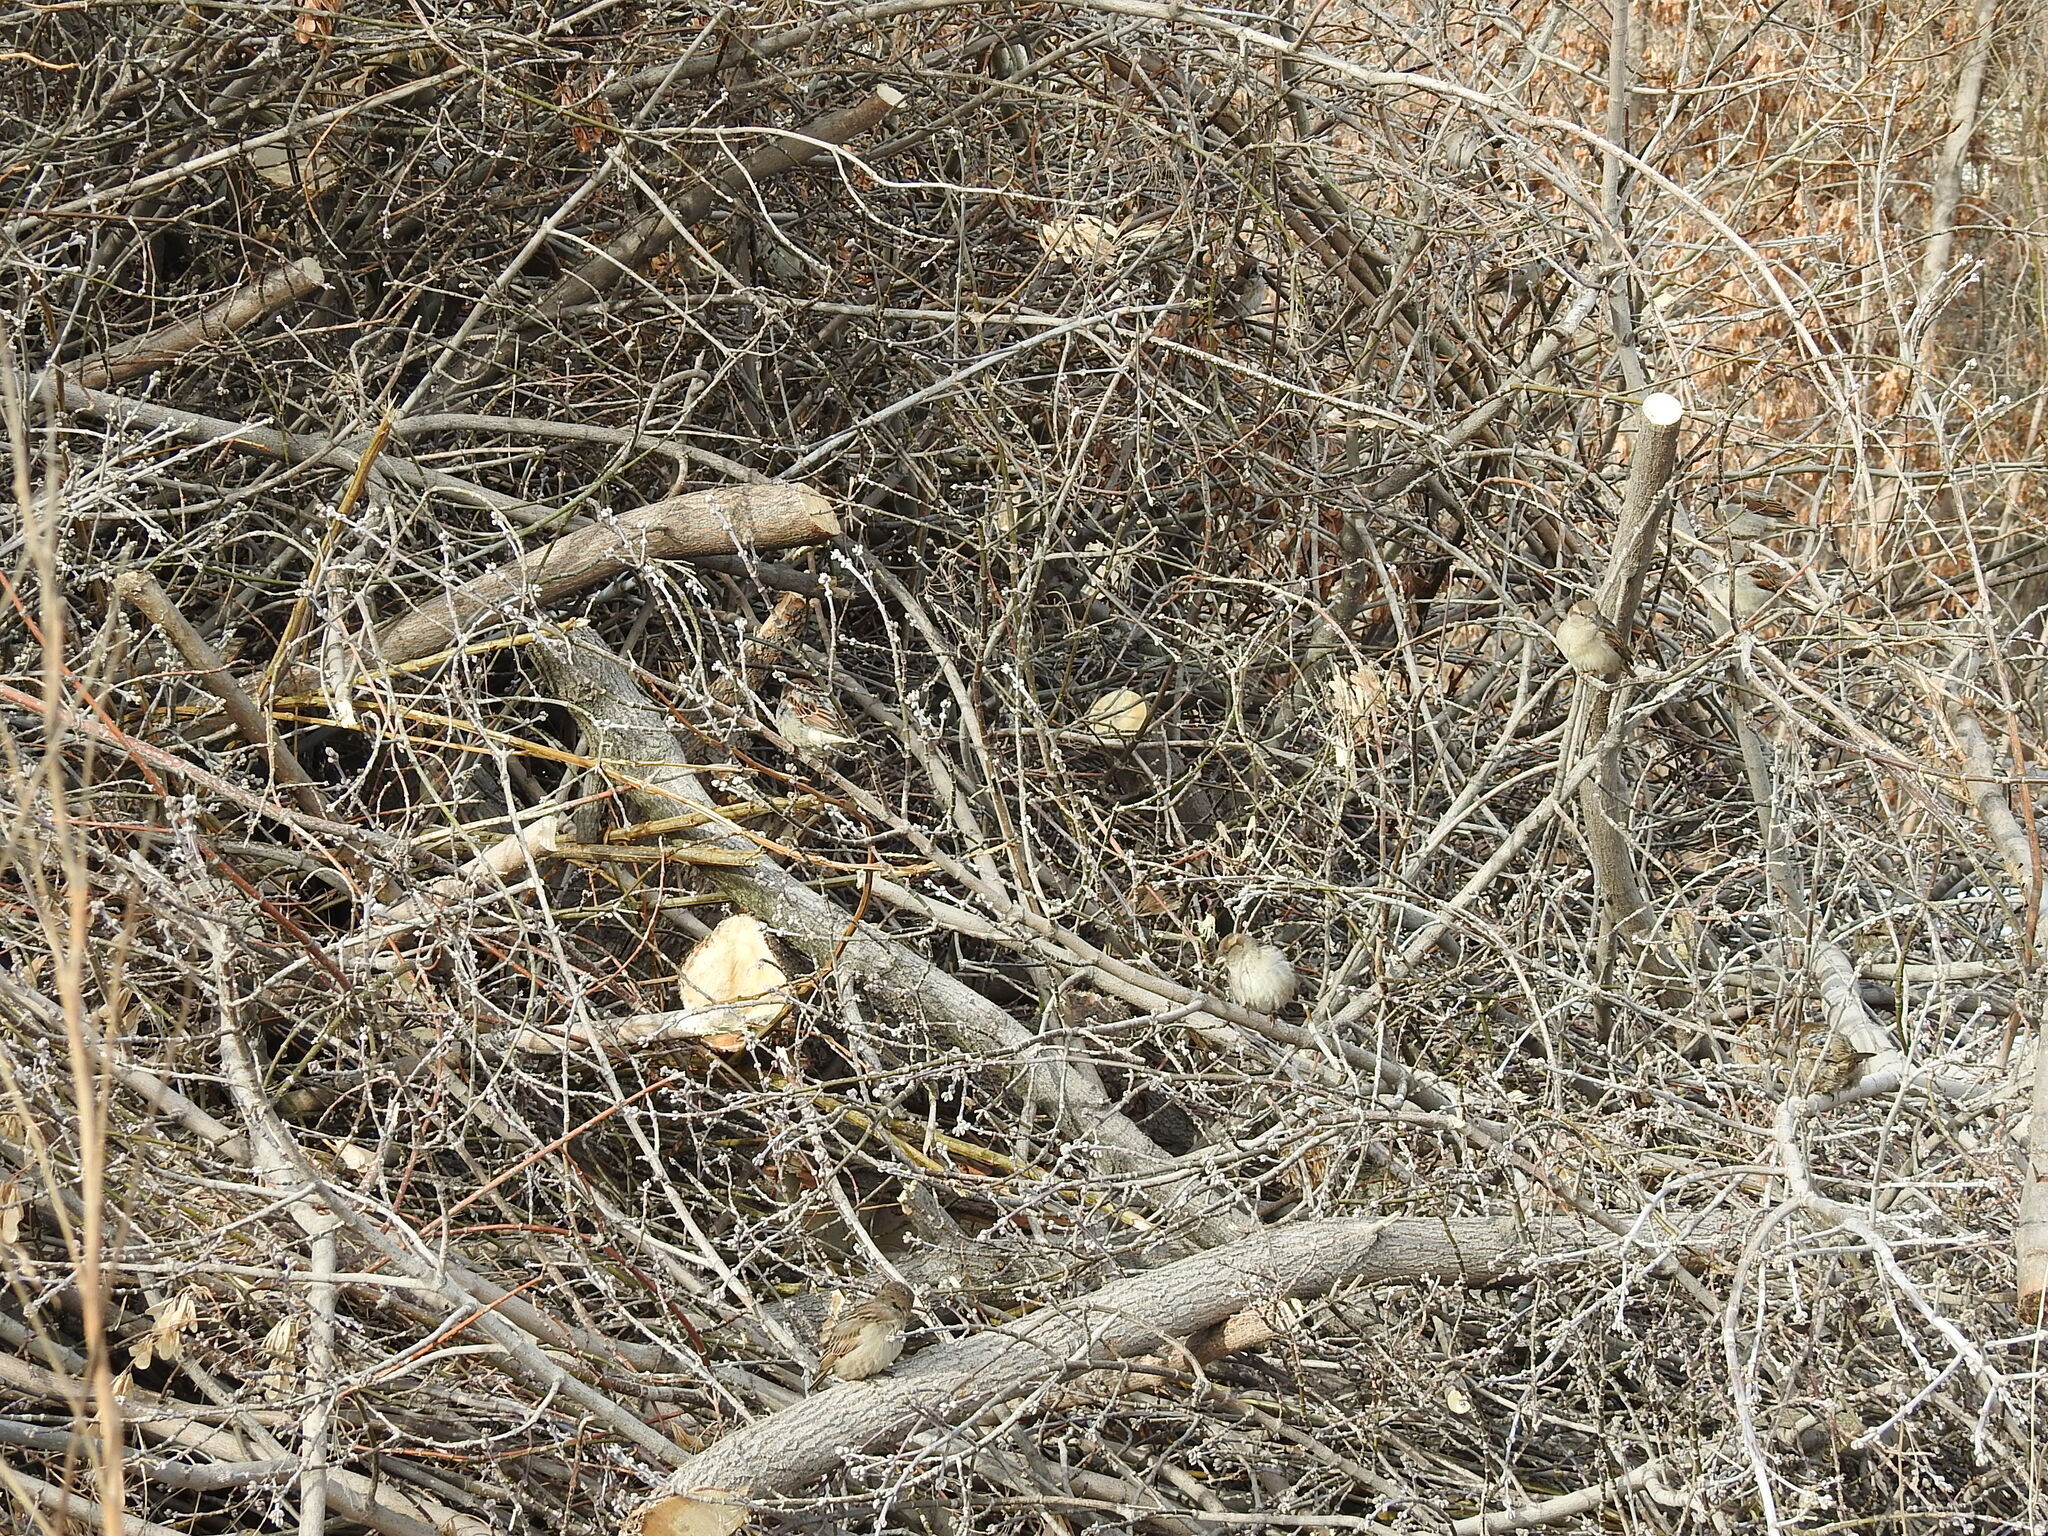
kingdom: Animalia
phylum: Chordata
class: Aves
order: Passeriformes
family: Passeridae
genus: Passer
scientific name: Passer domesticus
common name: House sparrow
